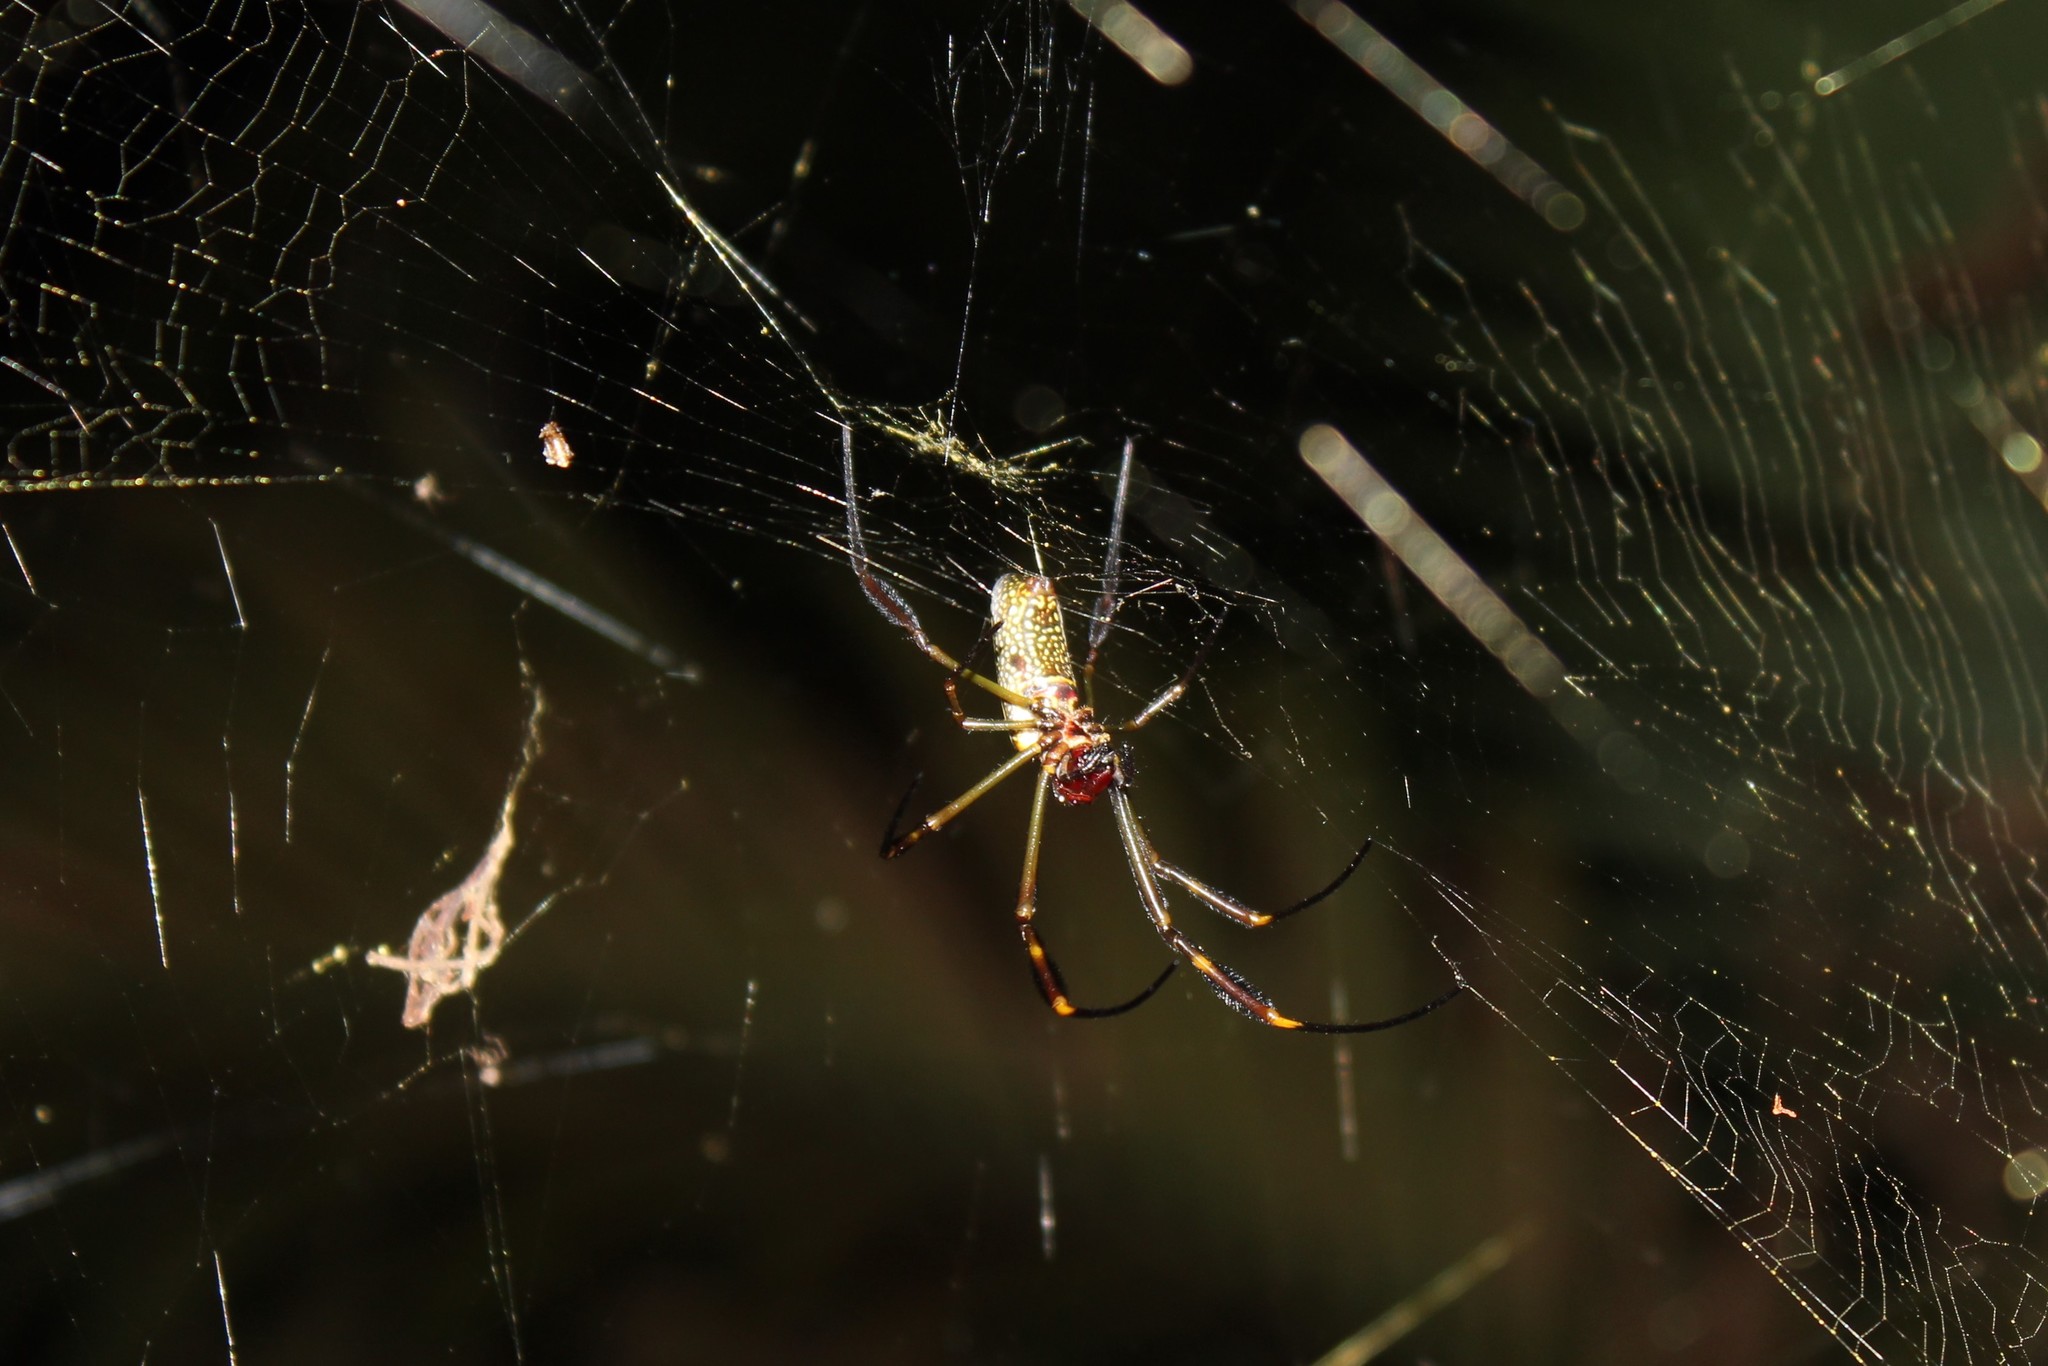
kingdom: Animalia
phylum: Arthropoda
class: Arachnida
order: Araneae
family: Araneidae
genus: Trichonephila
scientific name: Trichonephila clavipes
